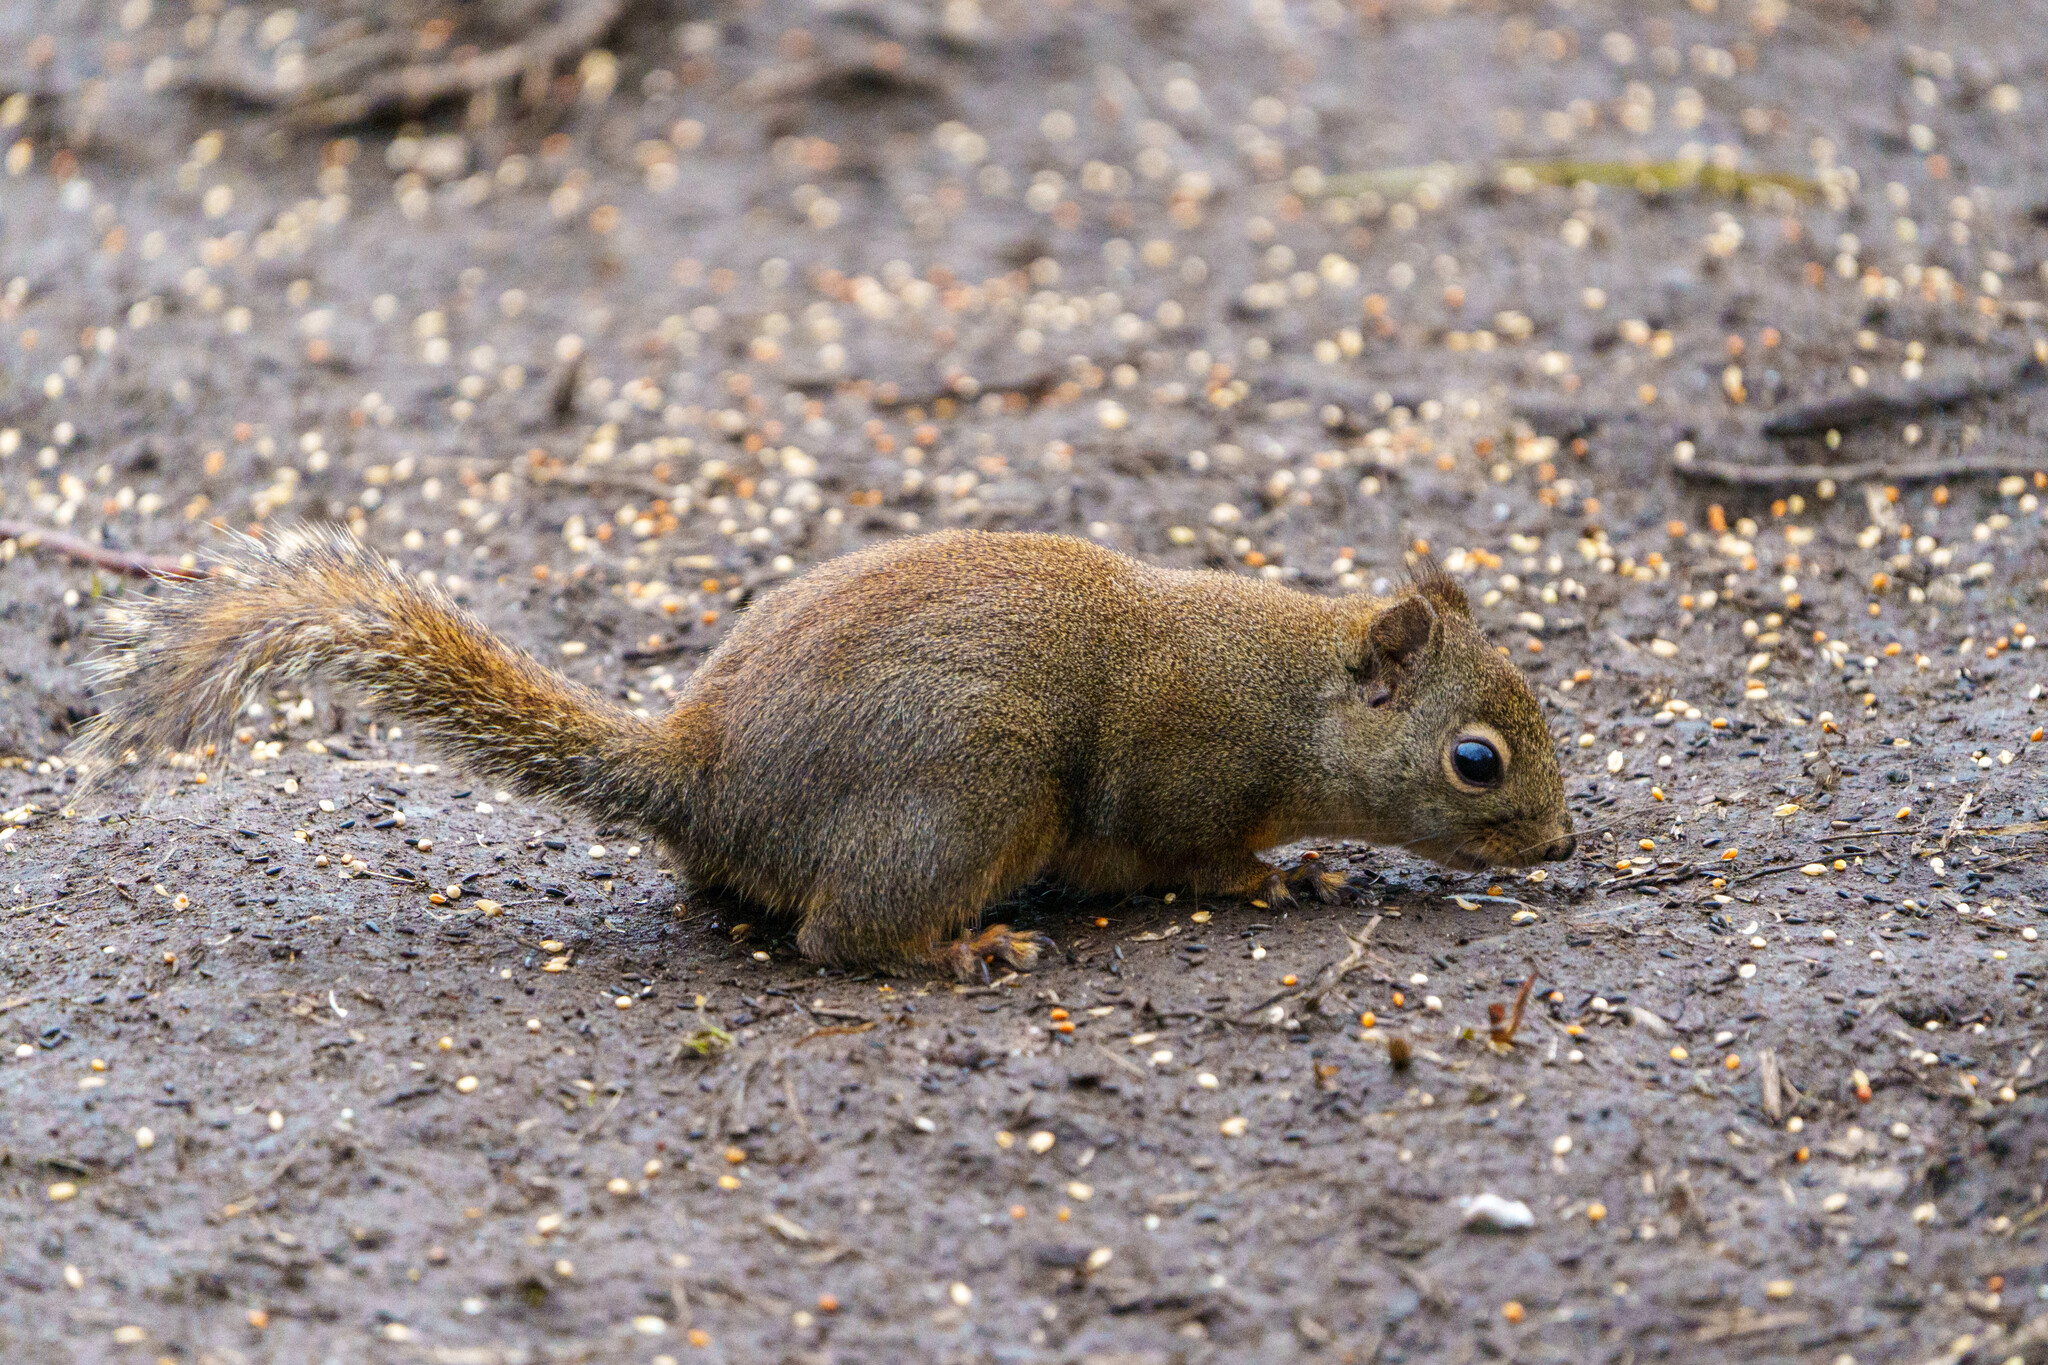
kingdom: Animalia
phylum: Chordata
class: Mammalia
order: Rodentia
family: Sciuridae
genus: Tamiasciurus
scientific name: Tamiasciurus douglasii
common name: Douglas's squirrel
